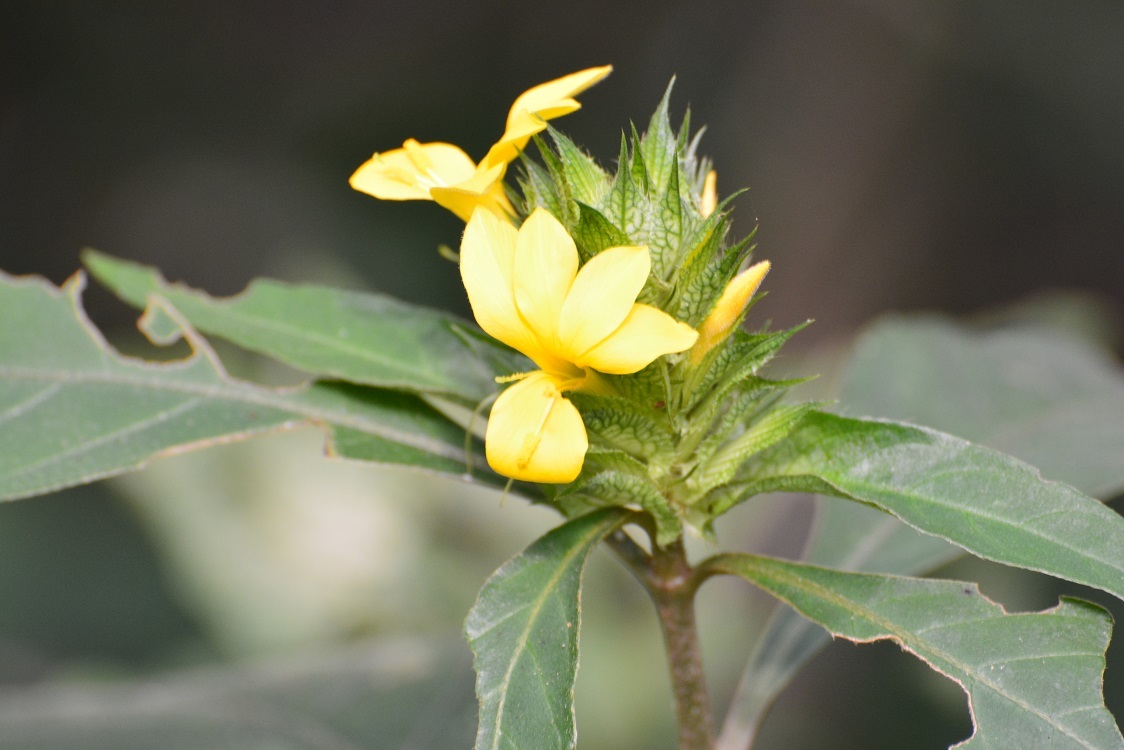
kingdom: Plantae
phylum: Tracheophyta
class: Magnoliopsida
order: Lamiales
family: Acanthaceae
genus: Barleria
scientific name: Barleria oenotheroides
